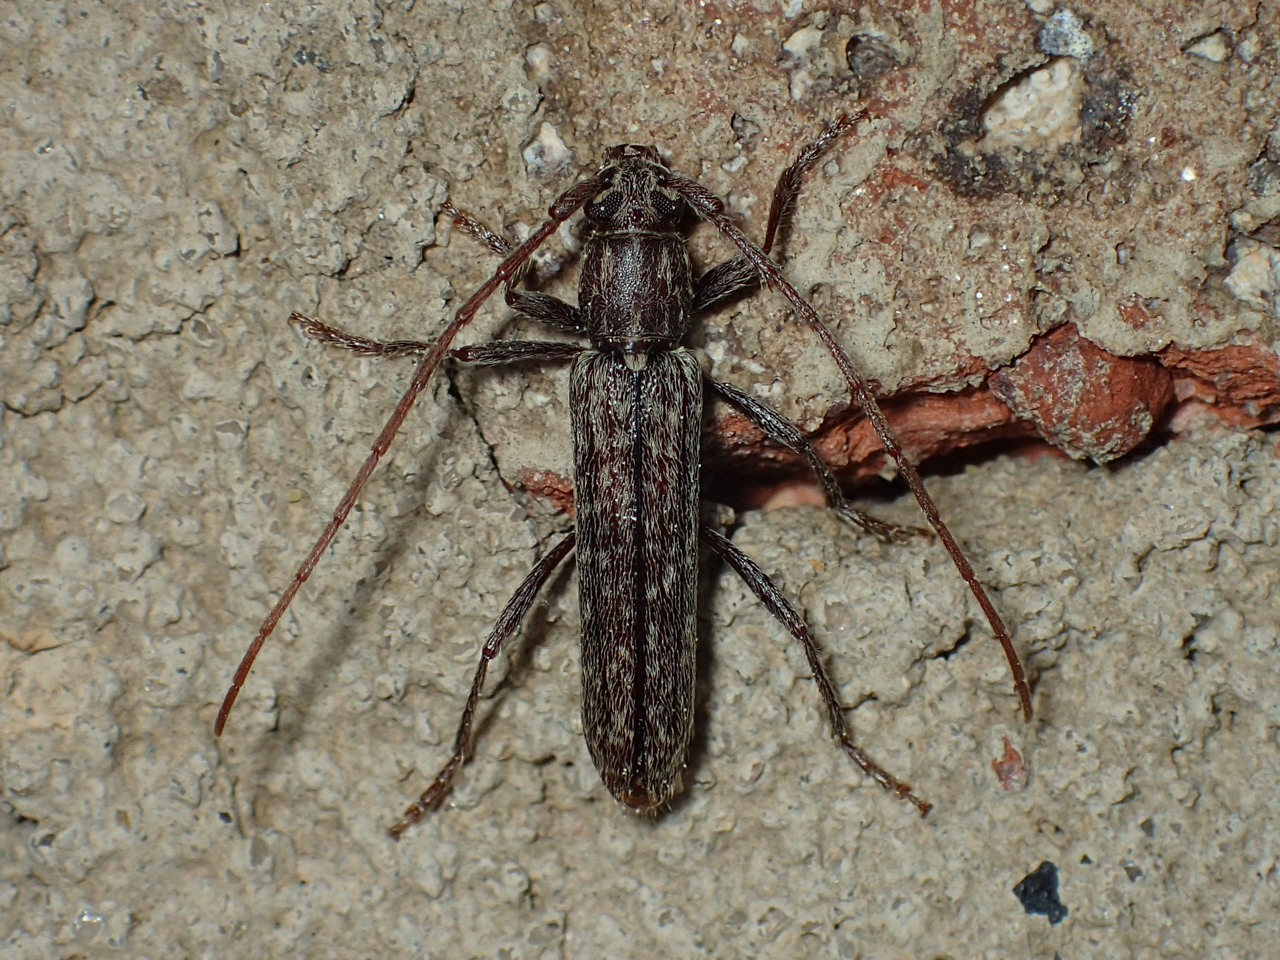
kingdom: Animalia
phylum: Arthropoda
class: Insecta
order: Coleoptera
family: Cerambycidae
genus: Anelaphus
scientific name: Anelaphus villosus
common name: Twig pruner
